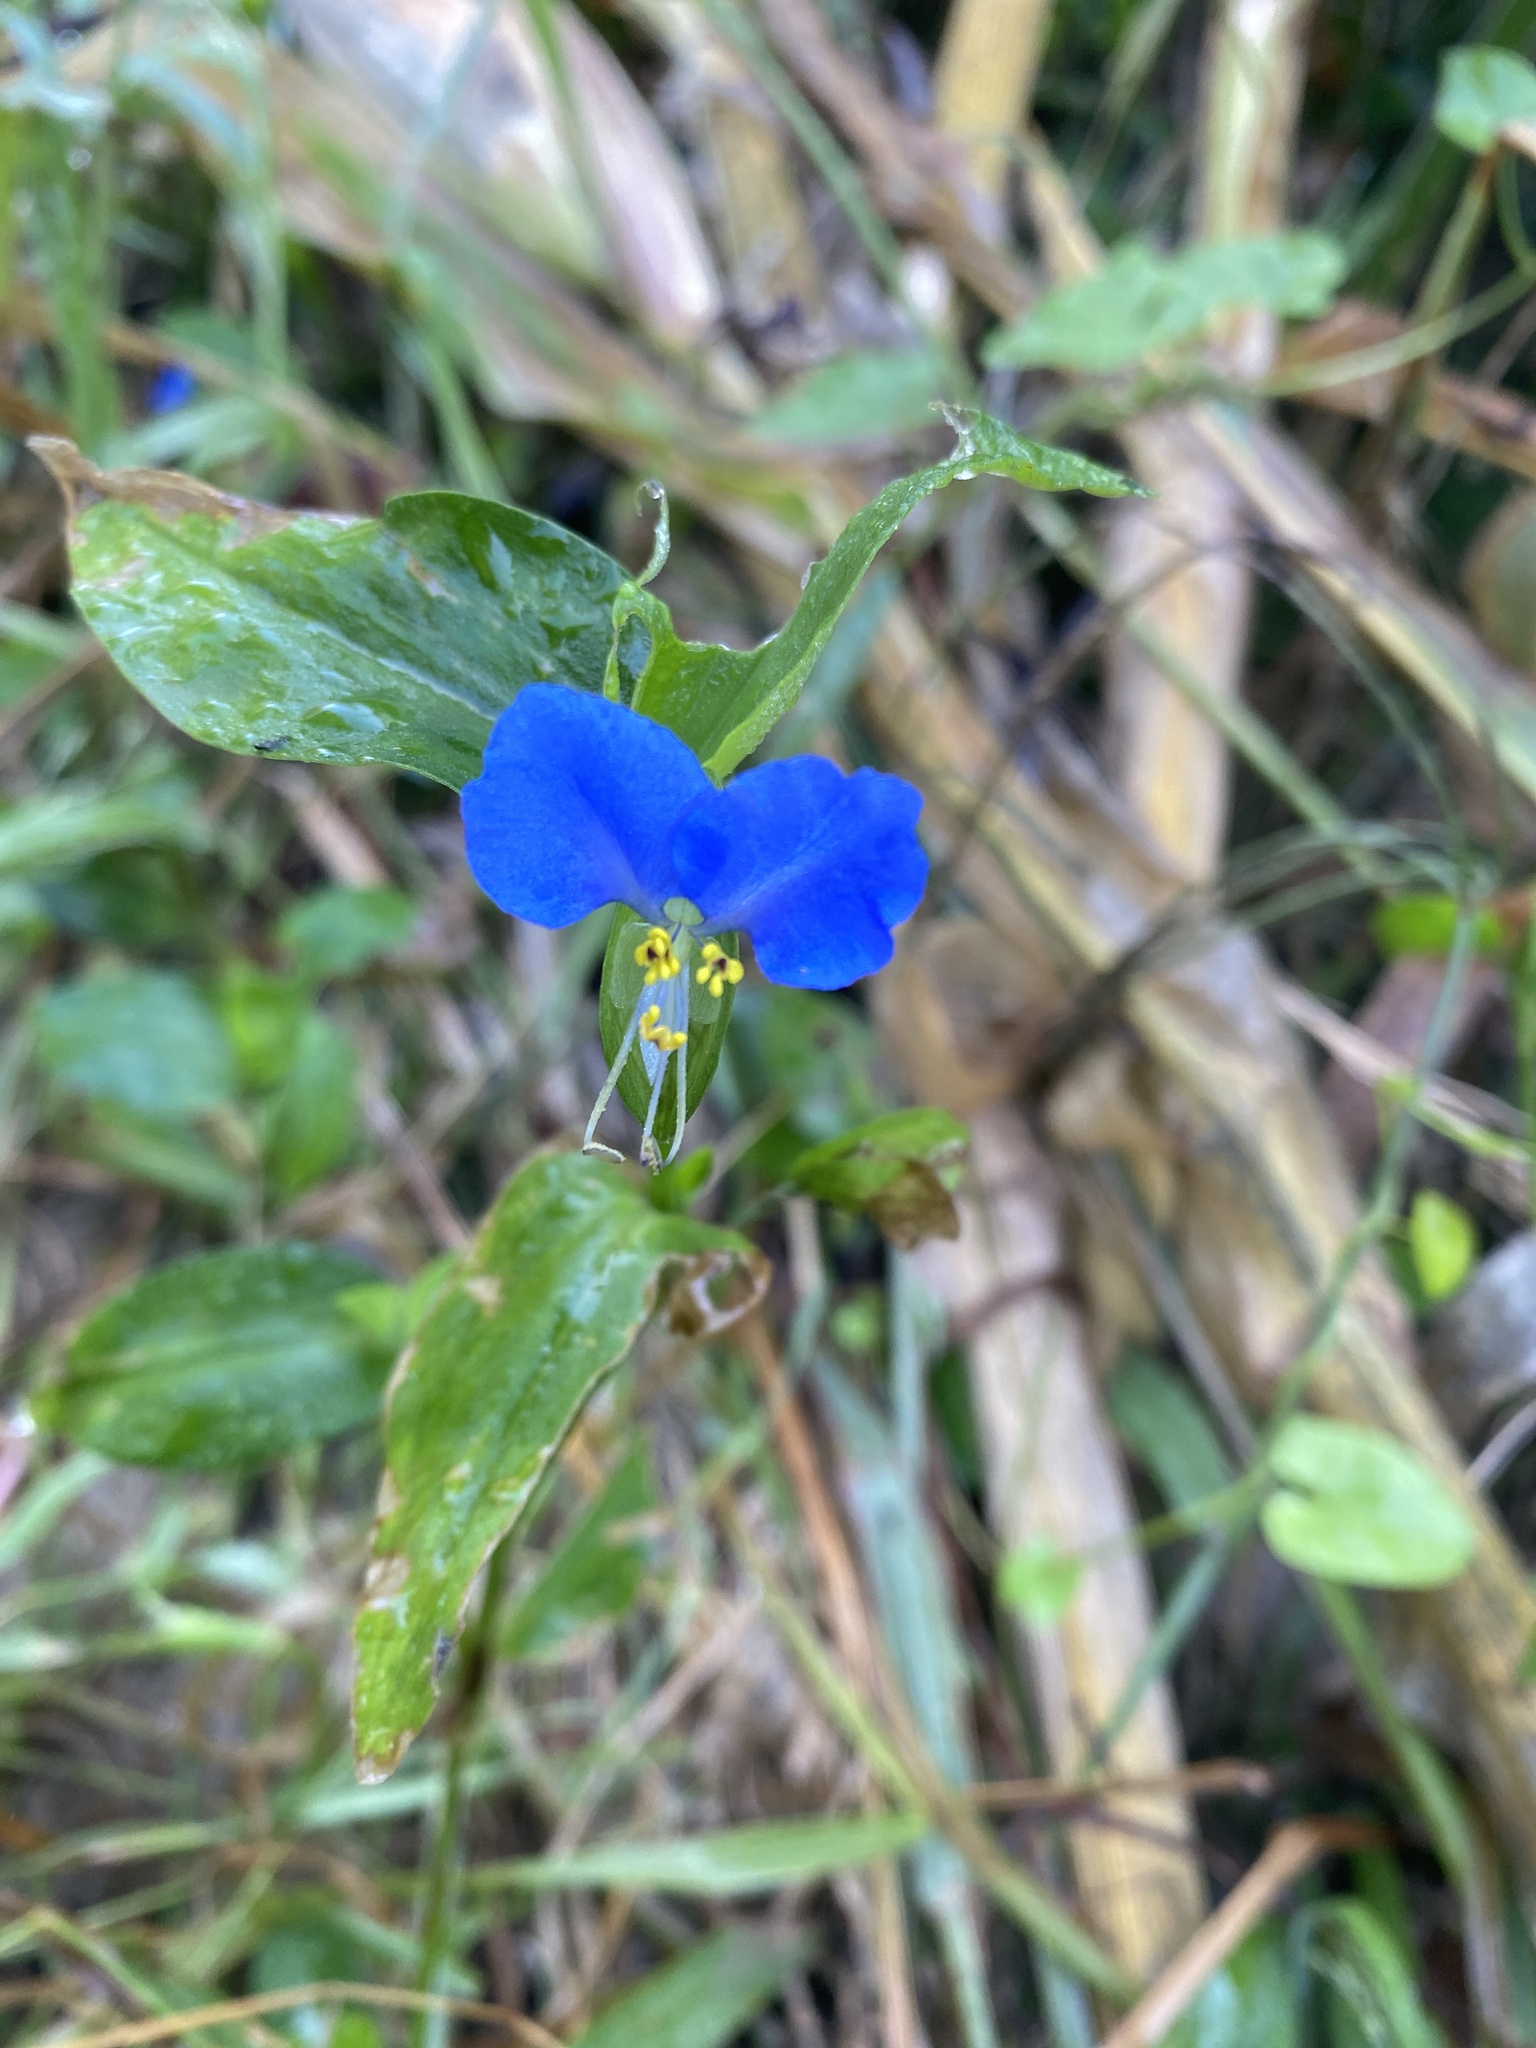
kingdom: Plantae
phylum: Tracheophyta
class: Liliopsida
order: Commelinales
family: Commelinaceae
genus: Commelina
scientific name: Commelina communis
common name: Asiatic dayflower
